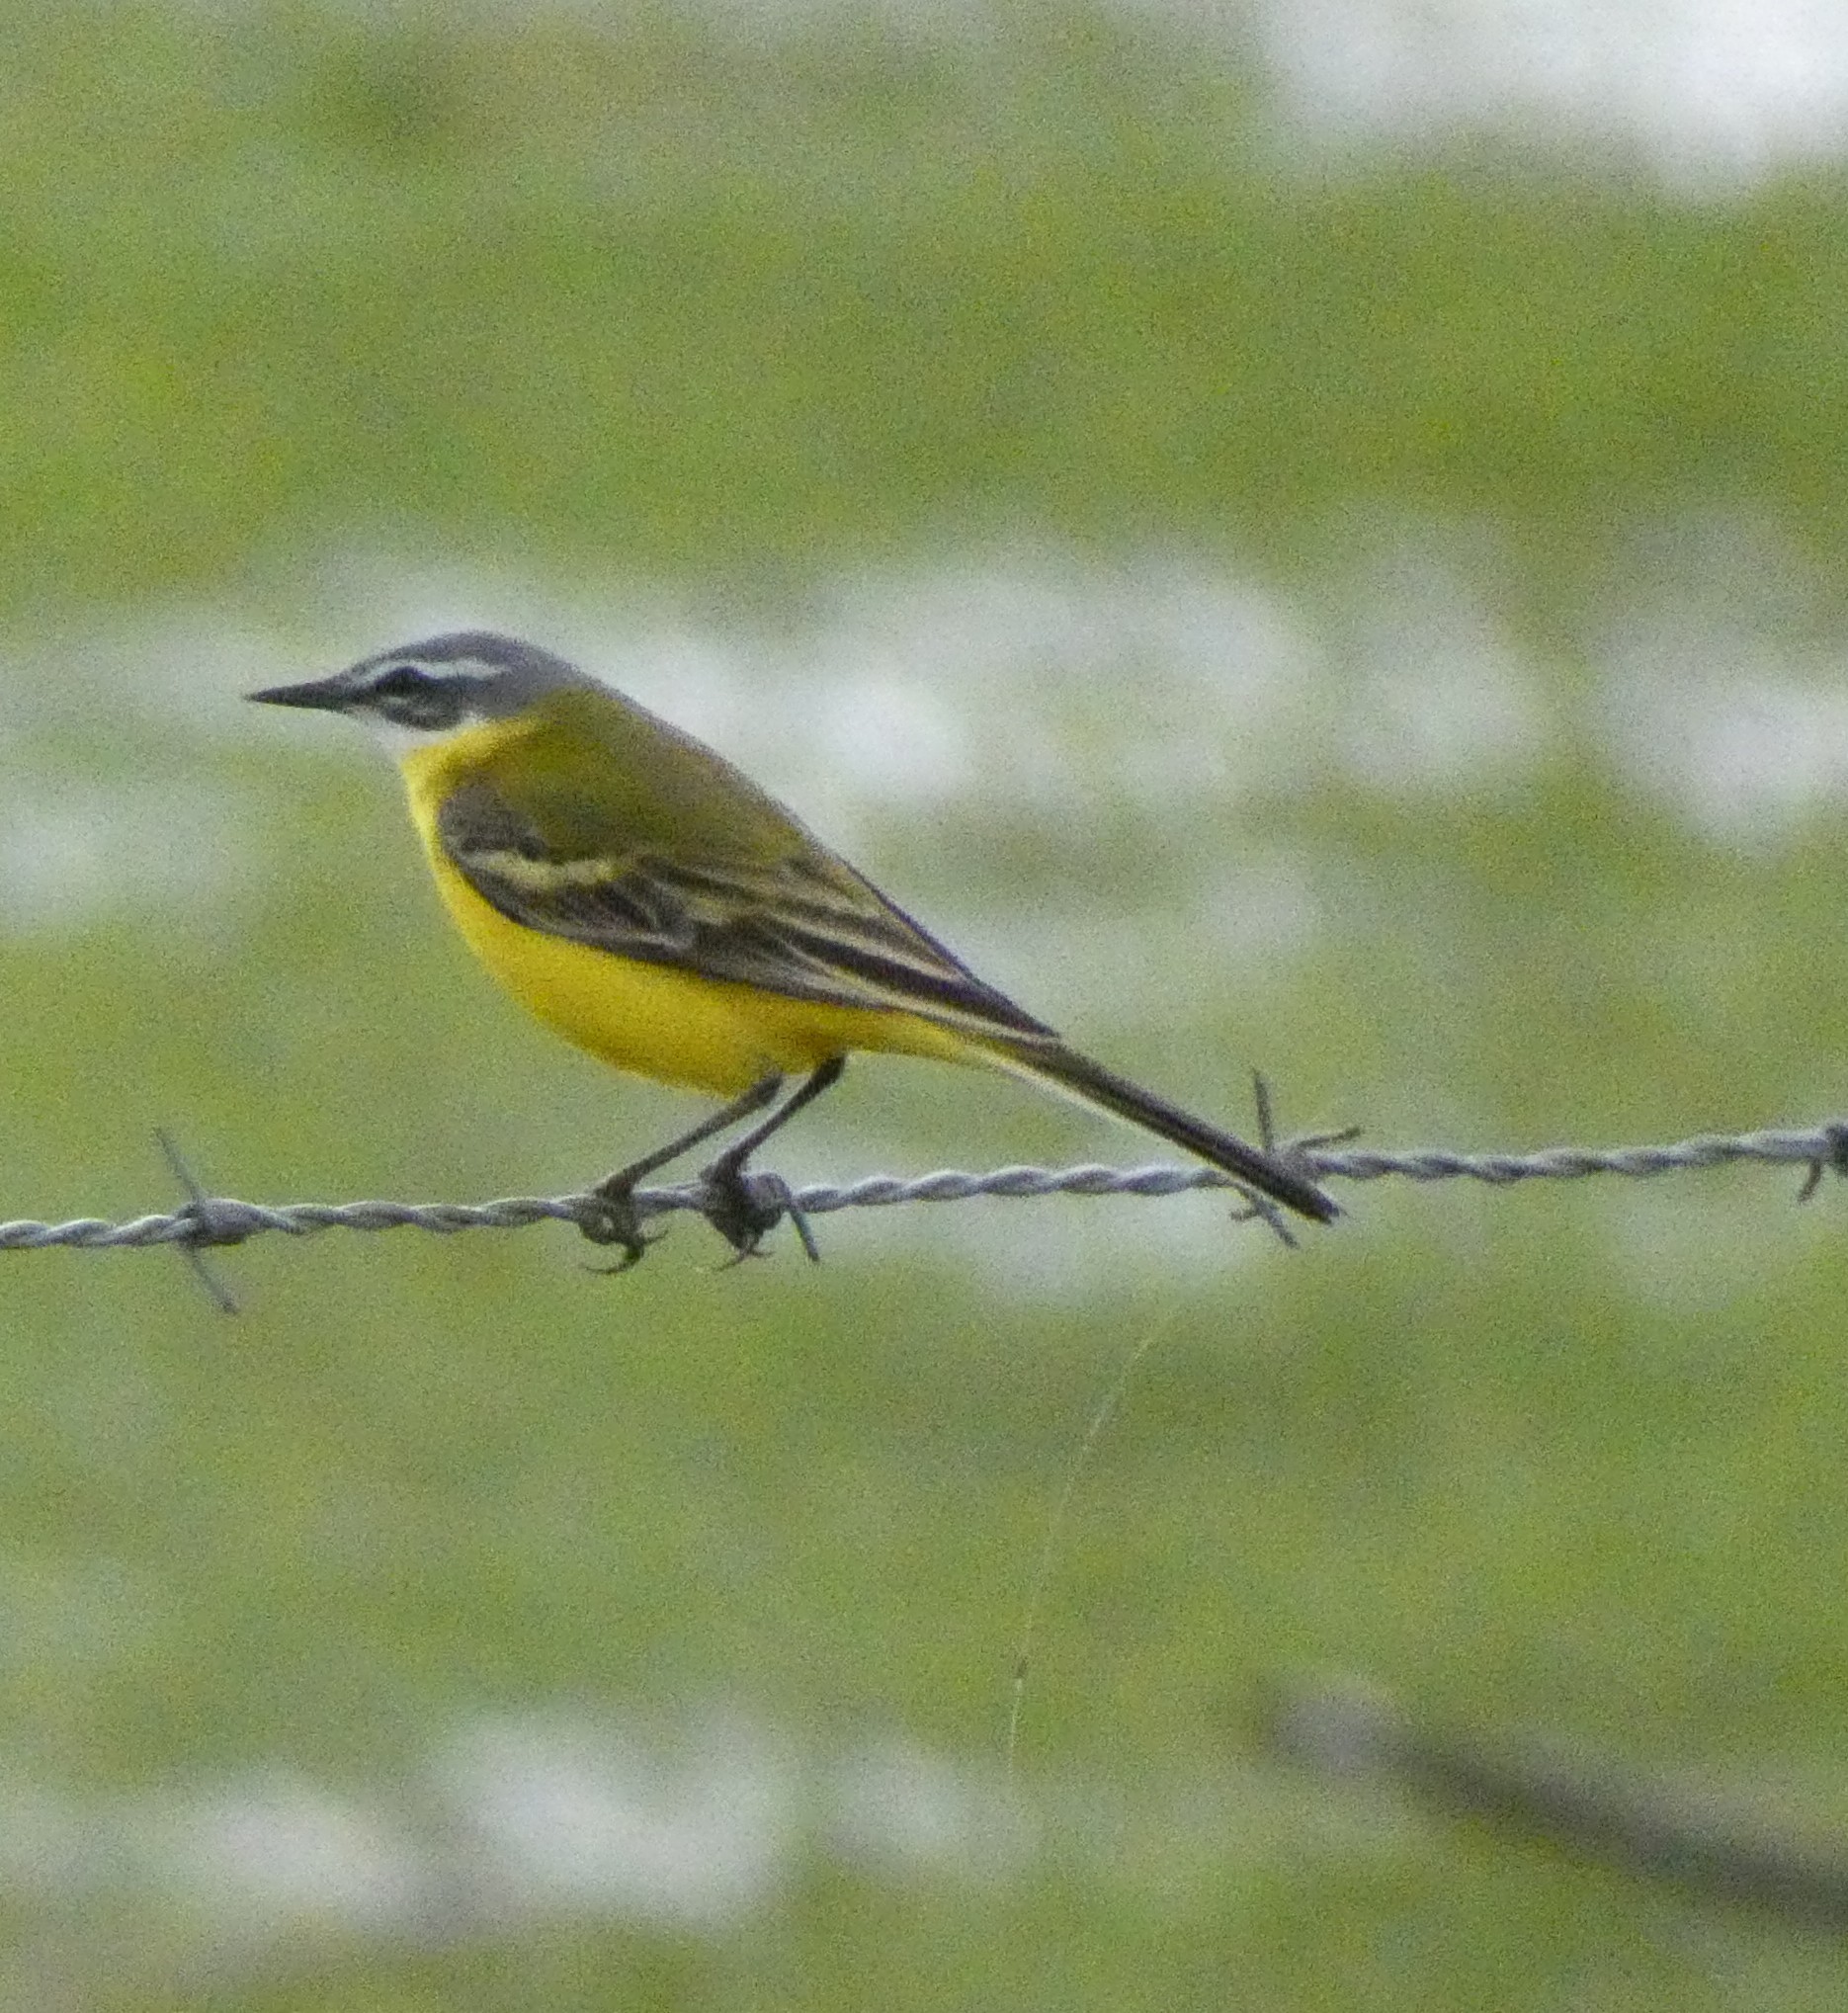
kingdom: Animalia
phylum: Chordata
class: Aves
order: Passeriformes
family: Motacillidae
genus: Motacilla
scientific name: Motacilla flava
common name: Western yellow wagtail
